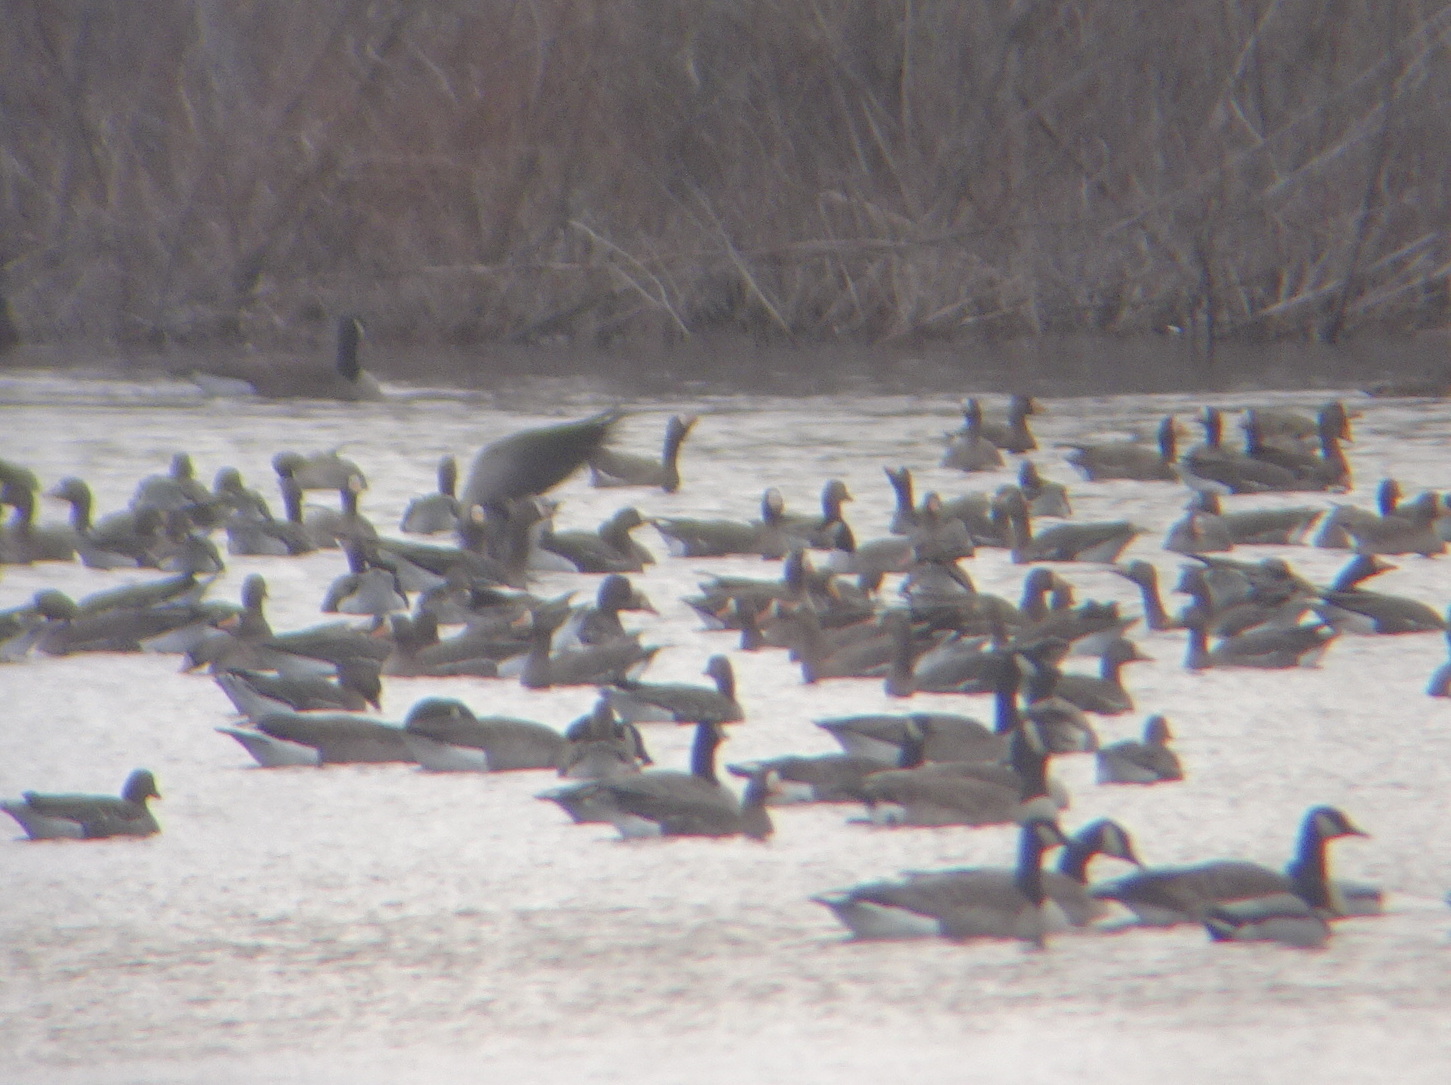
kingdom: Animalia
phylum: Chordata
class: Aves
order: Anseriformes
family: Anatidae
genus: Anser
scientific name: Anser albifrons
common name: Greater white-fronted goose
